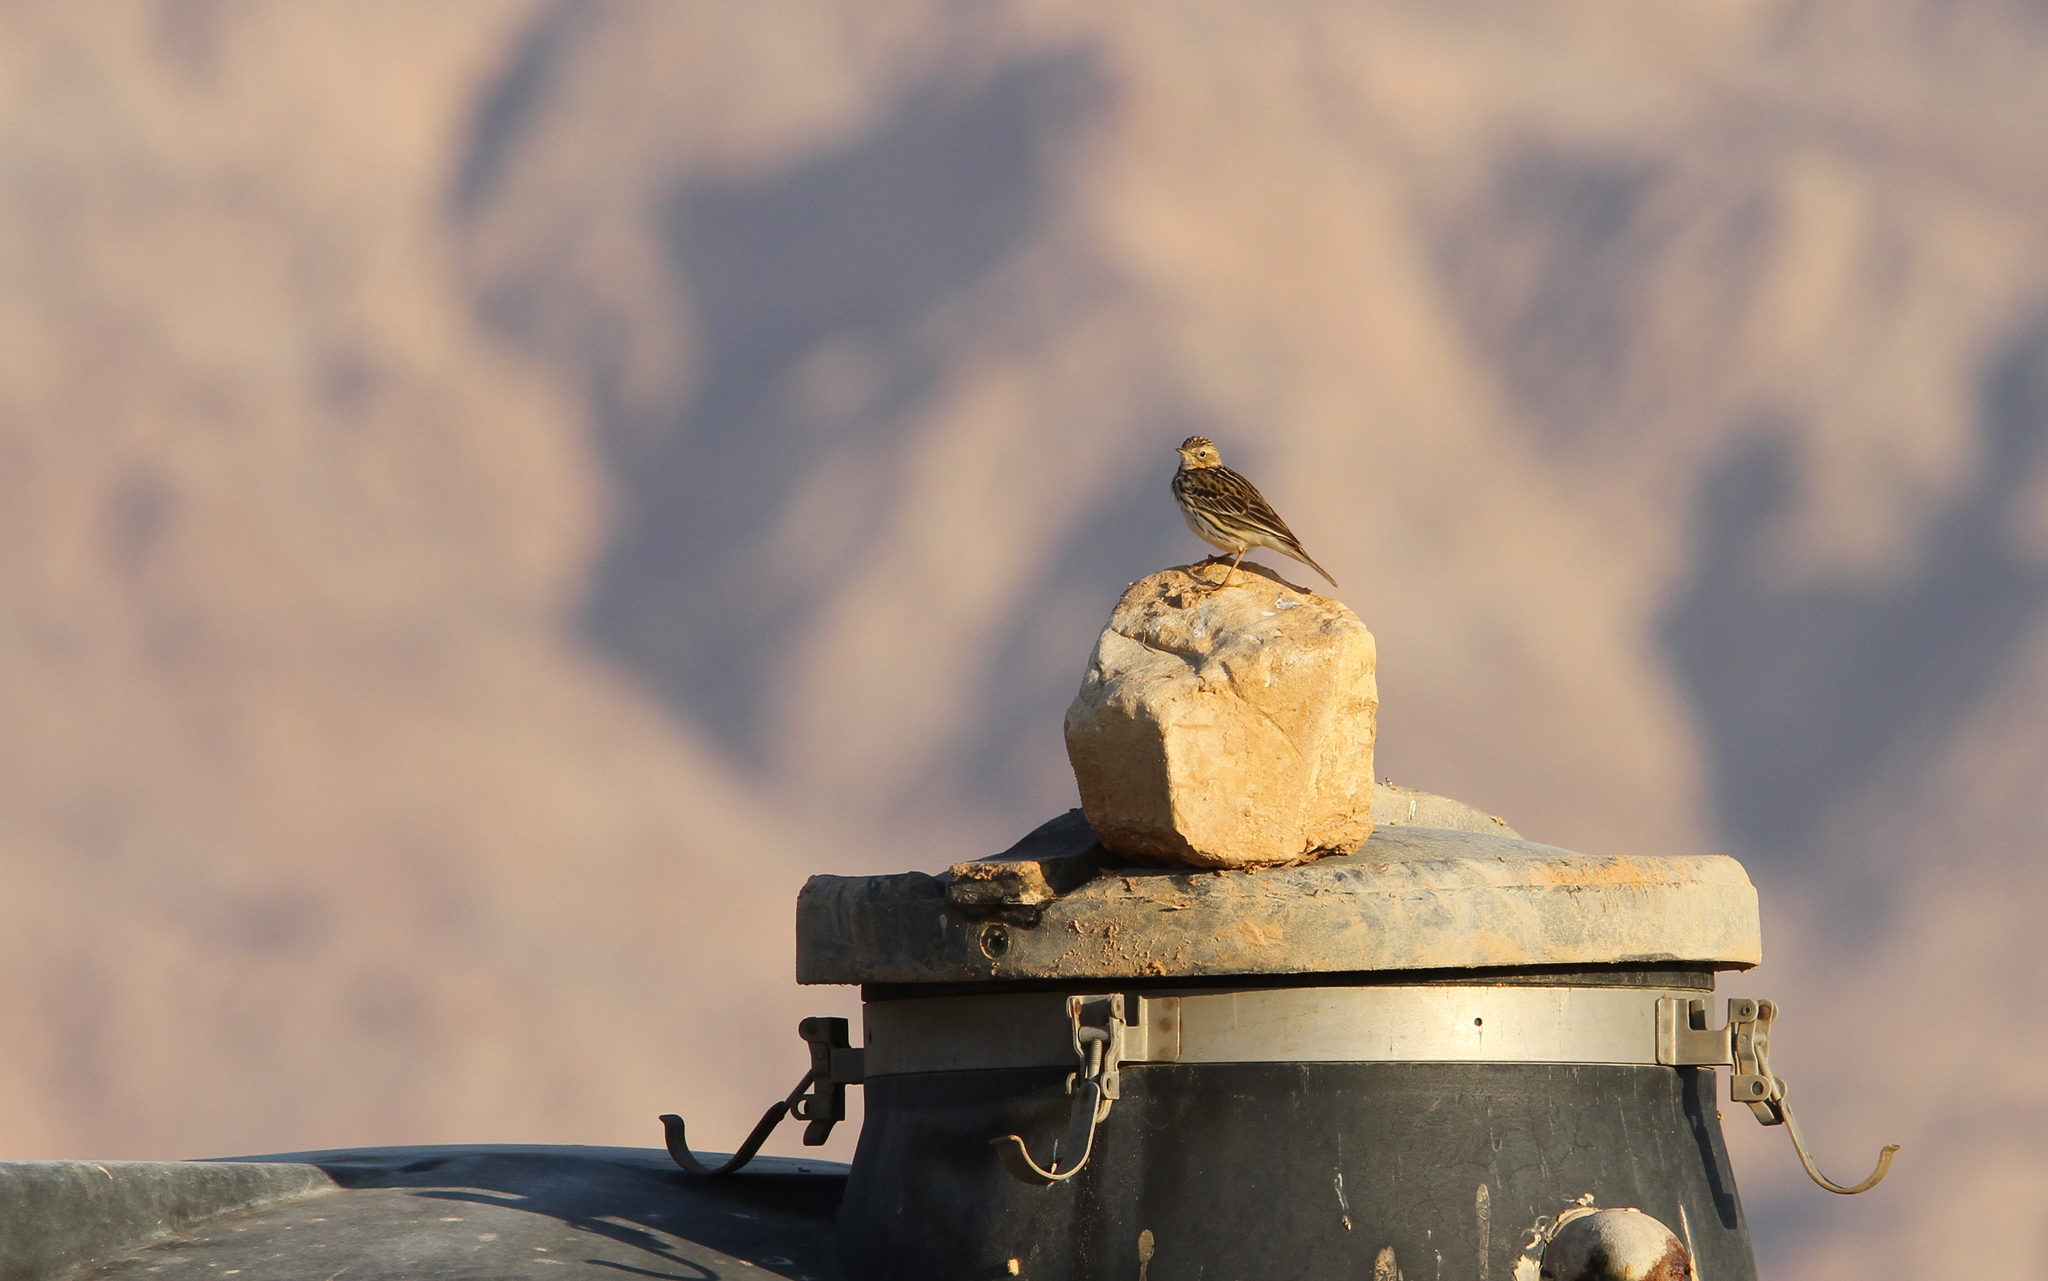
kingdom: Animalia
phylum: Chordata
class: Aves
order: Passeriformes
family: Motacillidae
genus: Anthus
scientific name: Anthus cervinus
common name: Red-throated pipit
